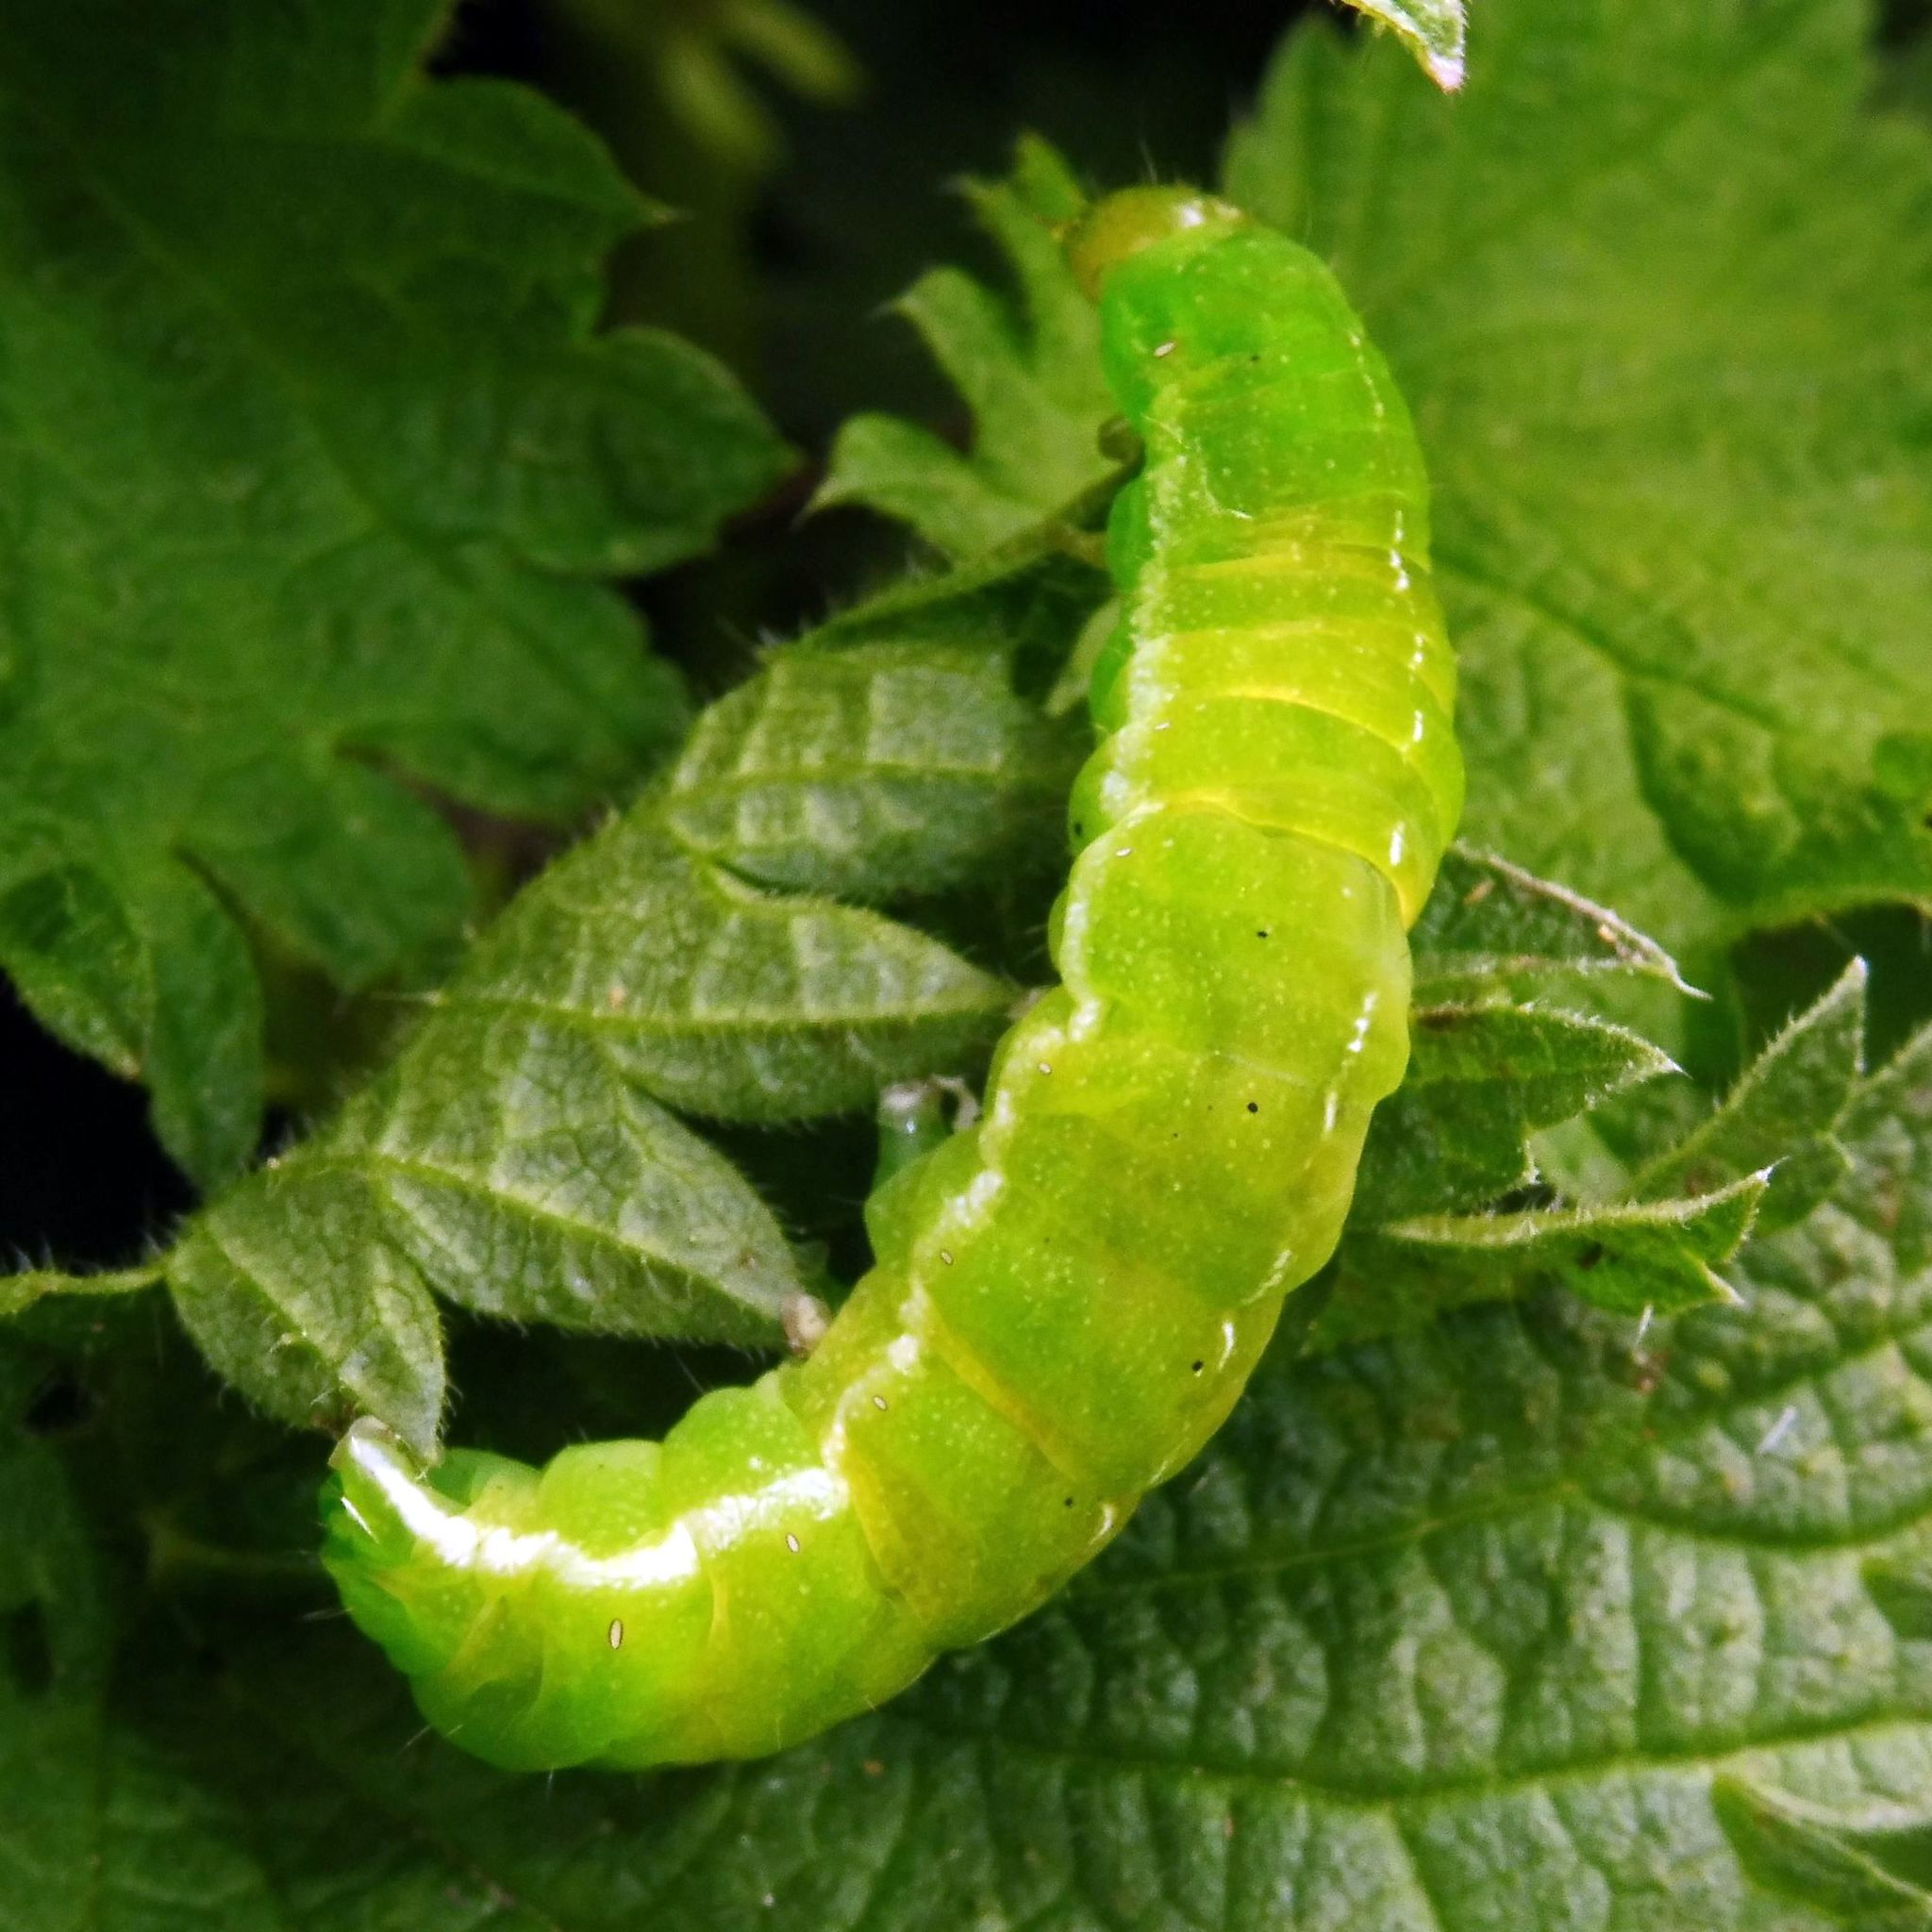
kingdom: Animalia
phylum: Arthropoda
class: Insecta
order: Lepidoptera
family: Noctuidae
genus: Phlogophora
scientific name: Phlogophora meticulosa
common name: Angle shades
